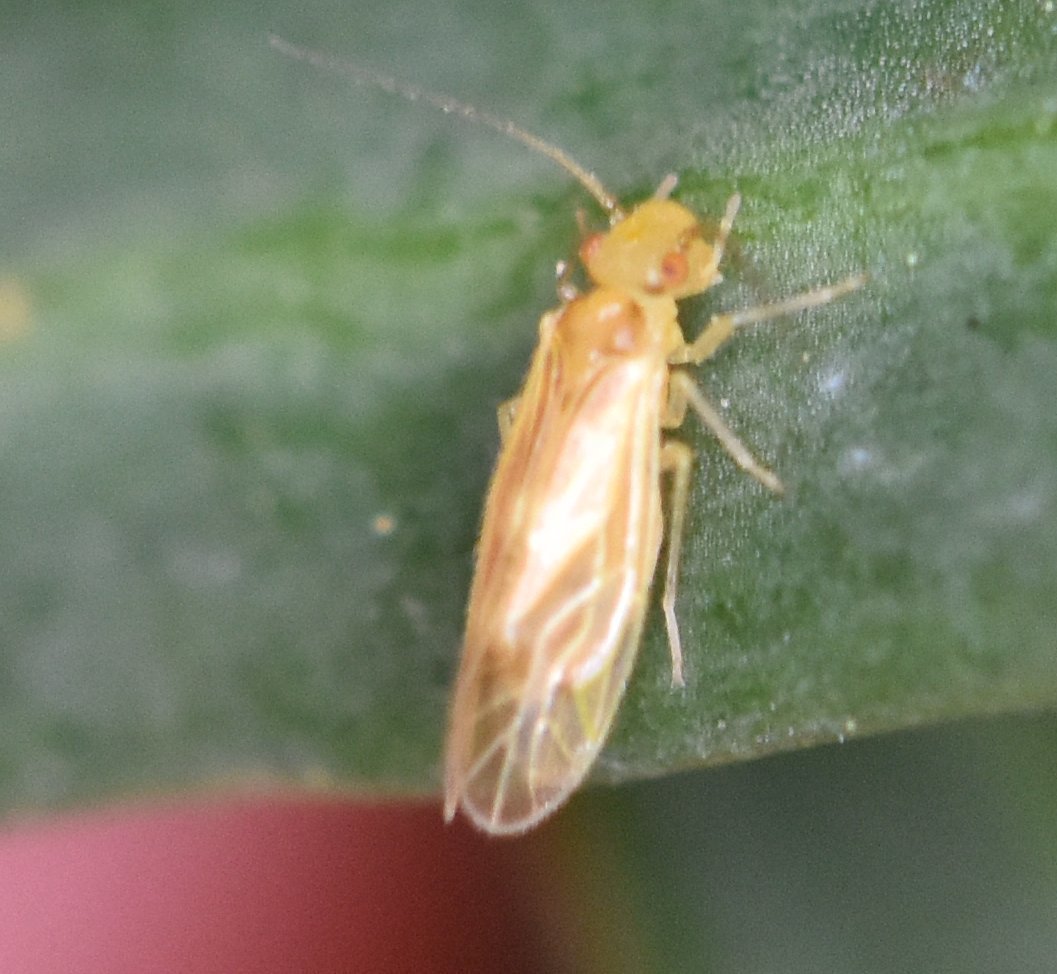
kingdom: Animalia
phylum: Arthropoda
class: Insecta
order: Psocodea
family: Caeciliusidae
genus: Valenzuela
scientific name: Valenzuela indicator
